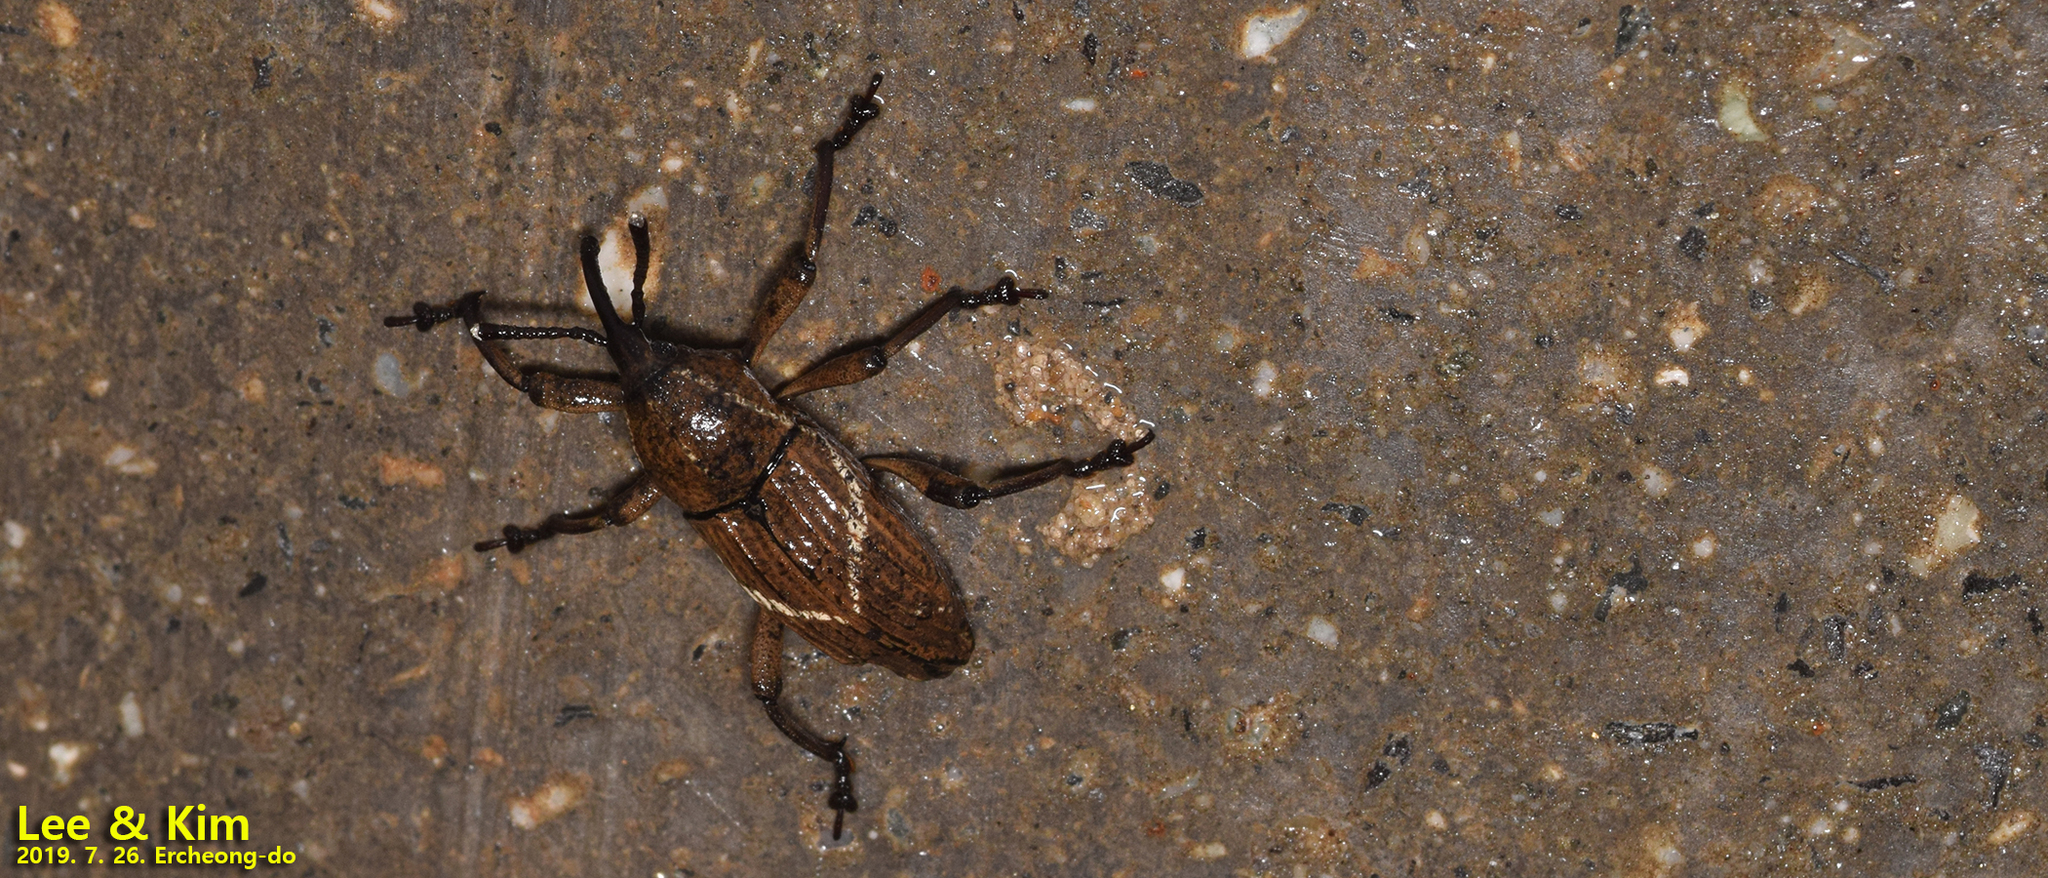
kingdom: Animalia
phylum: Arthropoda
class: Insecta
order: Coleoptera
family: Dryophthoridae
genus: Cryptoderma
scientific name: Cryptoderma fortunei
